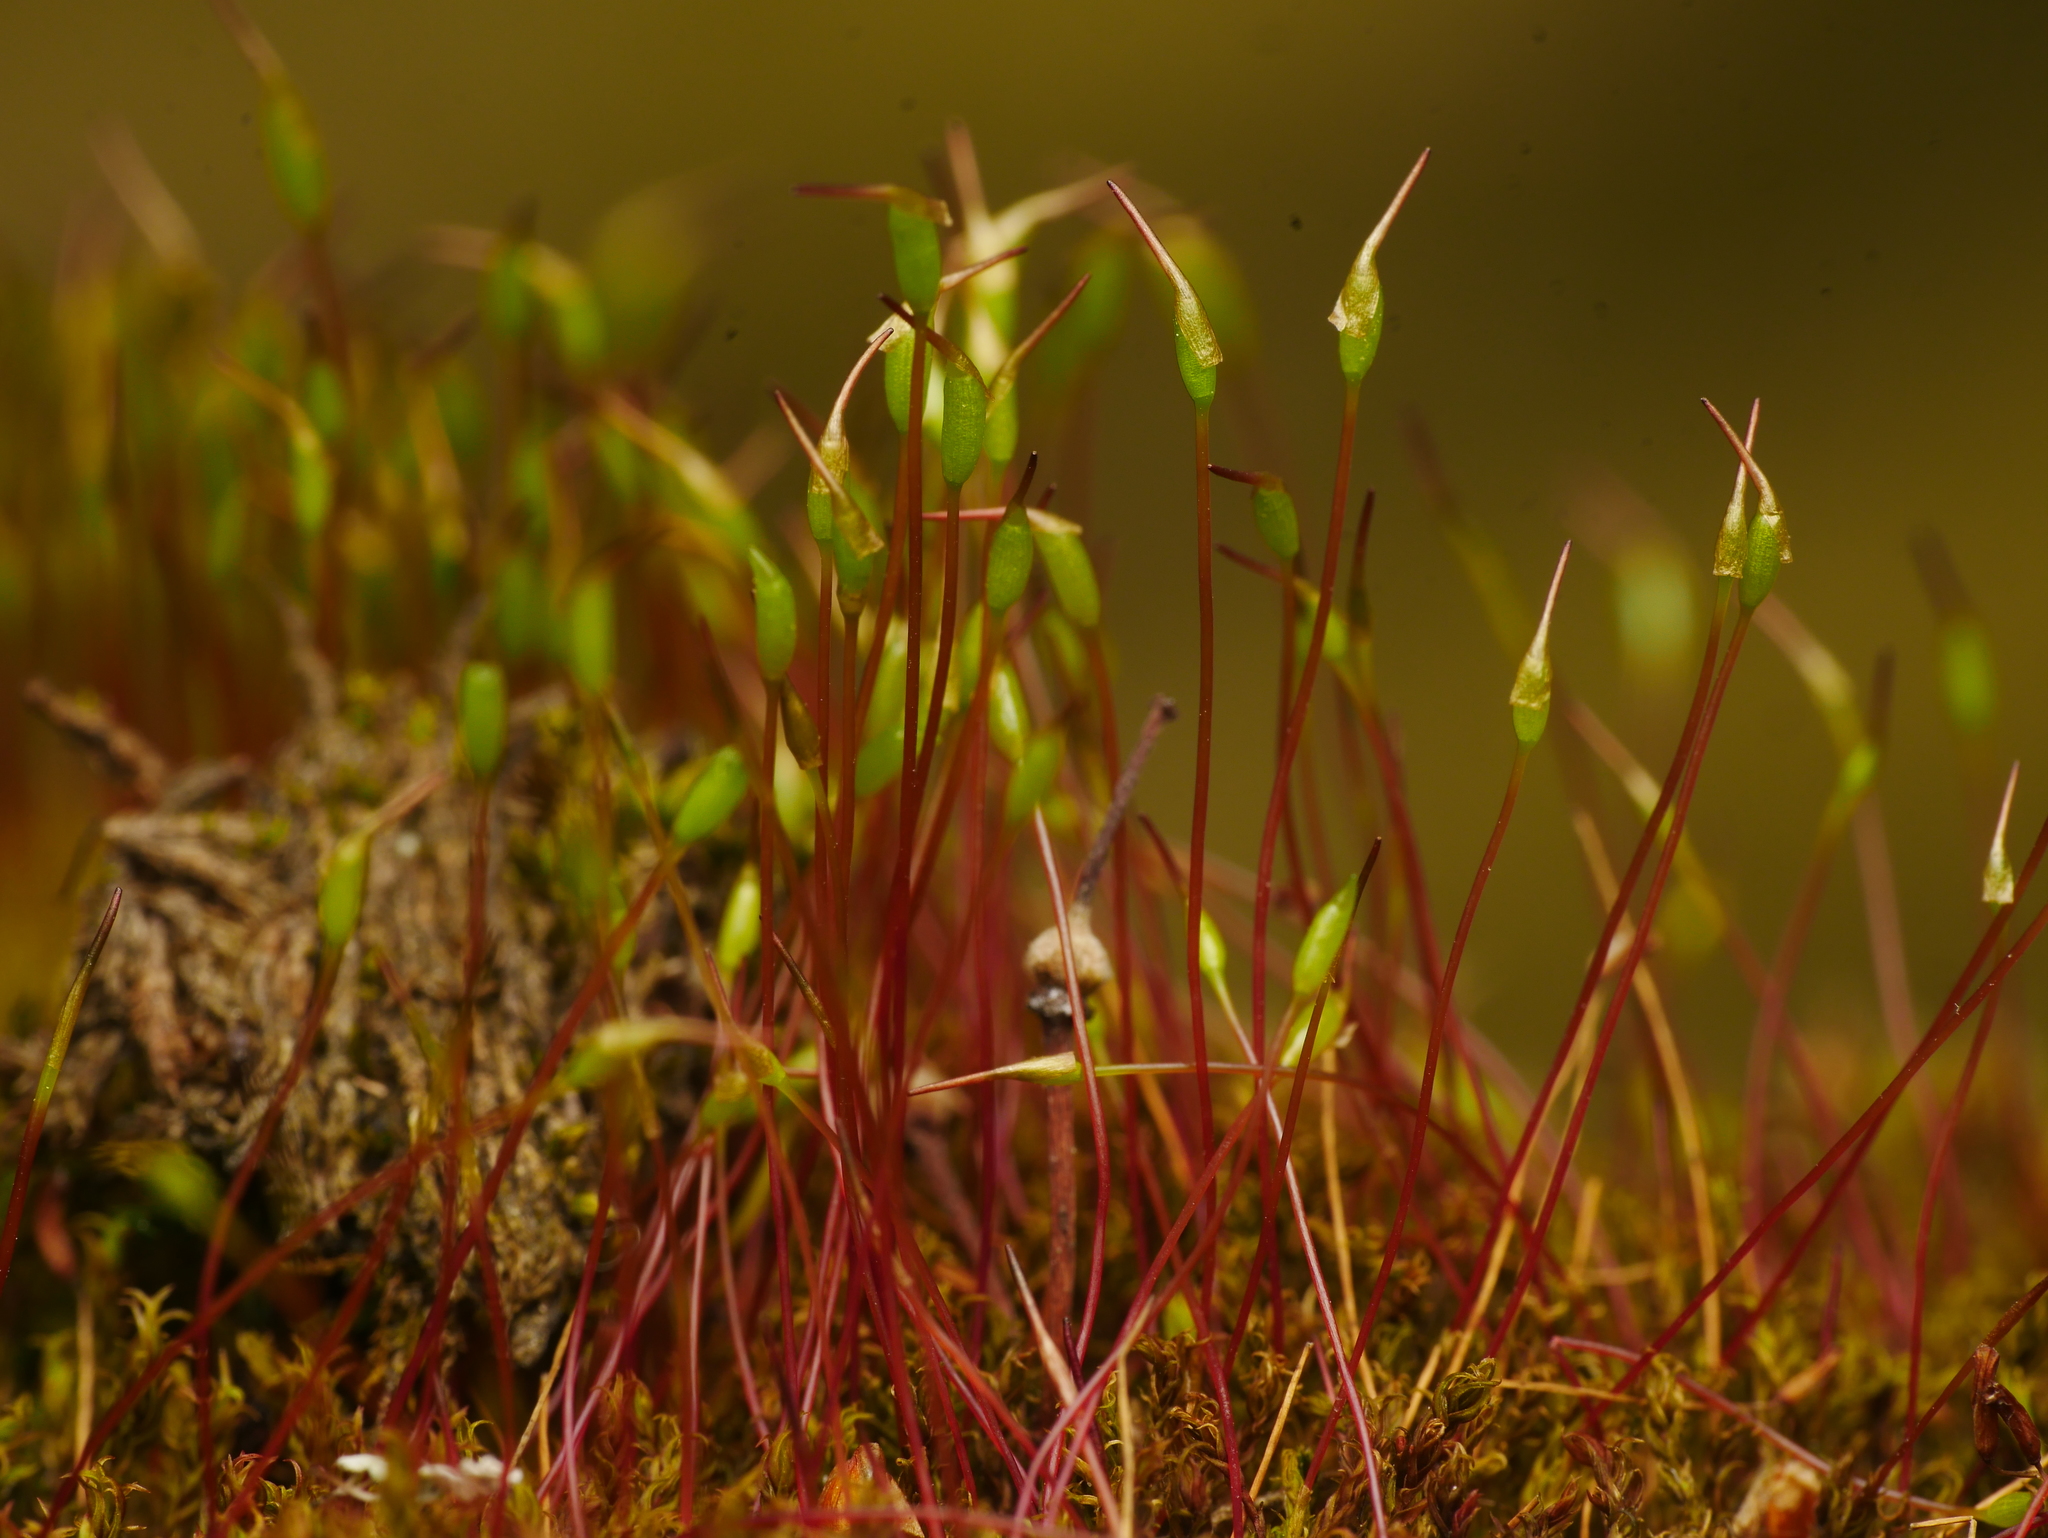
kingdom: Plantae
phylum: Bryophyta
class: Bryopsida
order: Dicranales
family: Ditrichaceae
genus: Ceratodon
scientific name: Ceratodon purpureus
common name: Redshank
